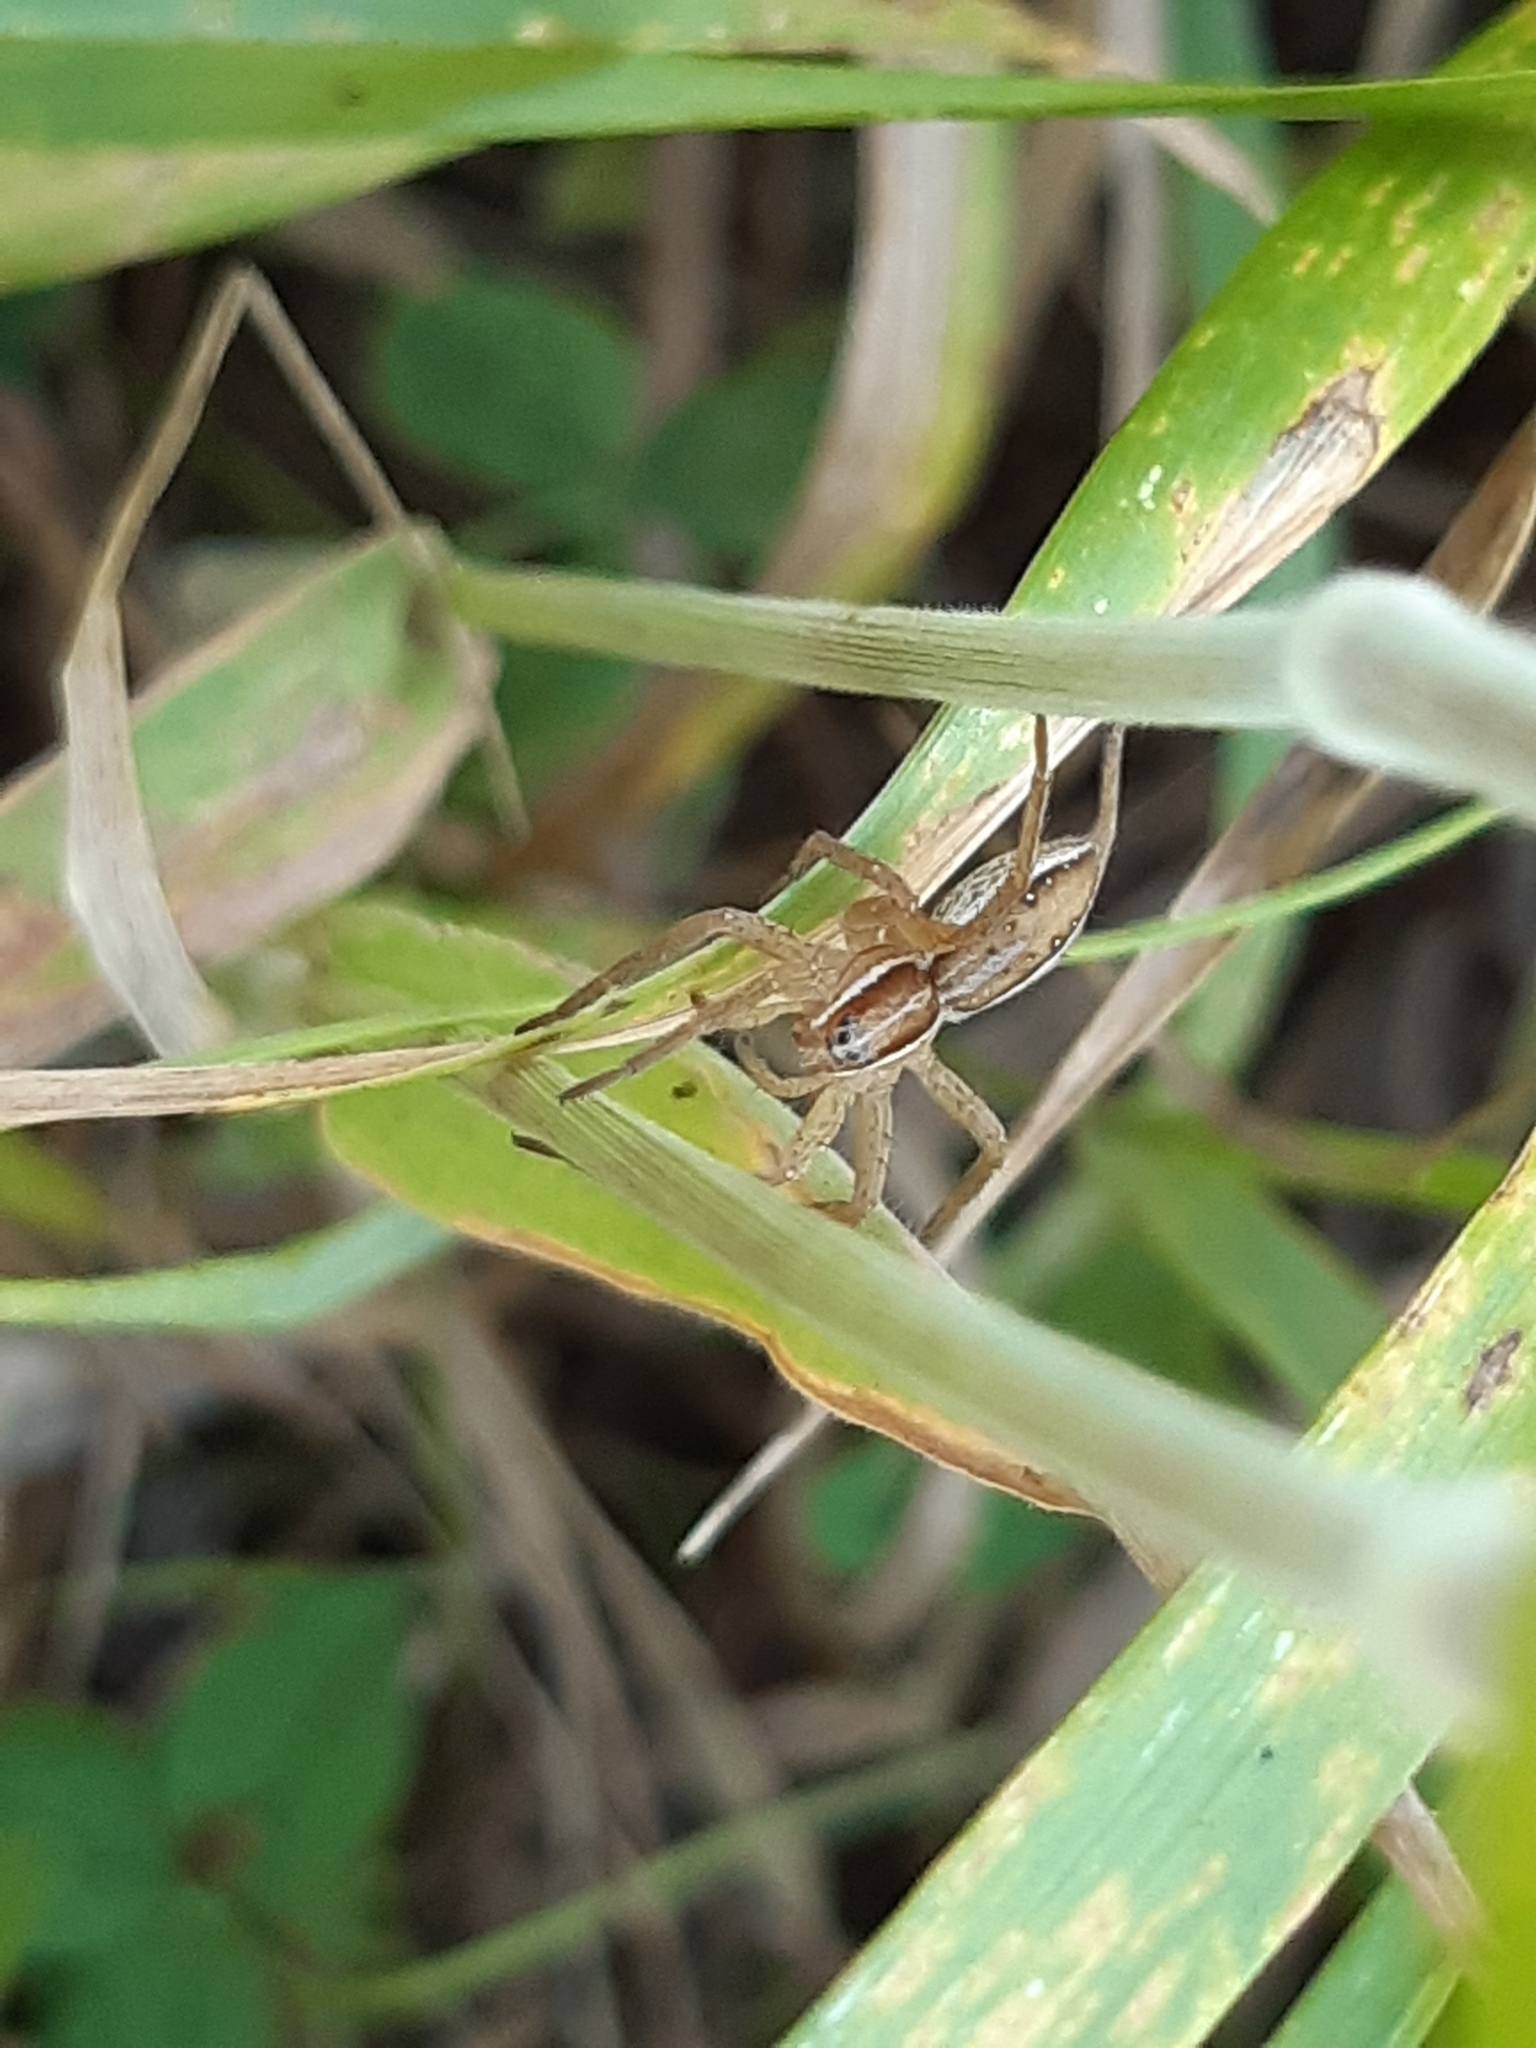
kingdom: Animalia
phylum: Arthropoda
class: Arachnida
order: Araneae
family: Pisauridae
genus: Dolomedes
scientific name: Dolomedes minor
